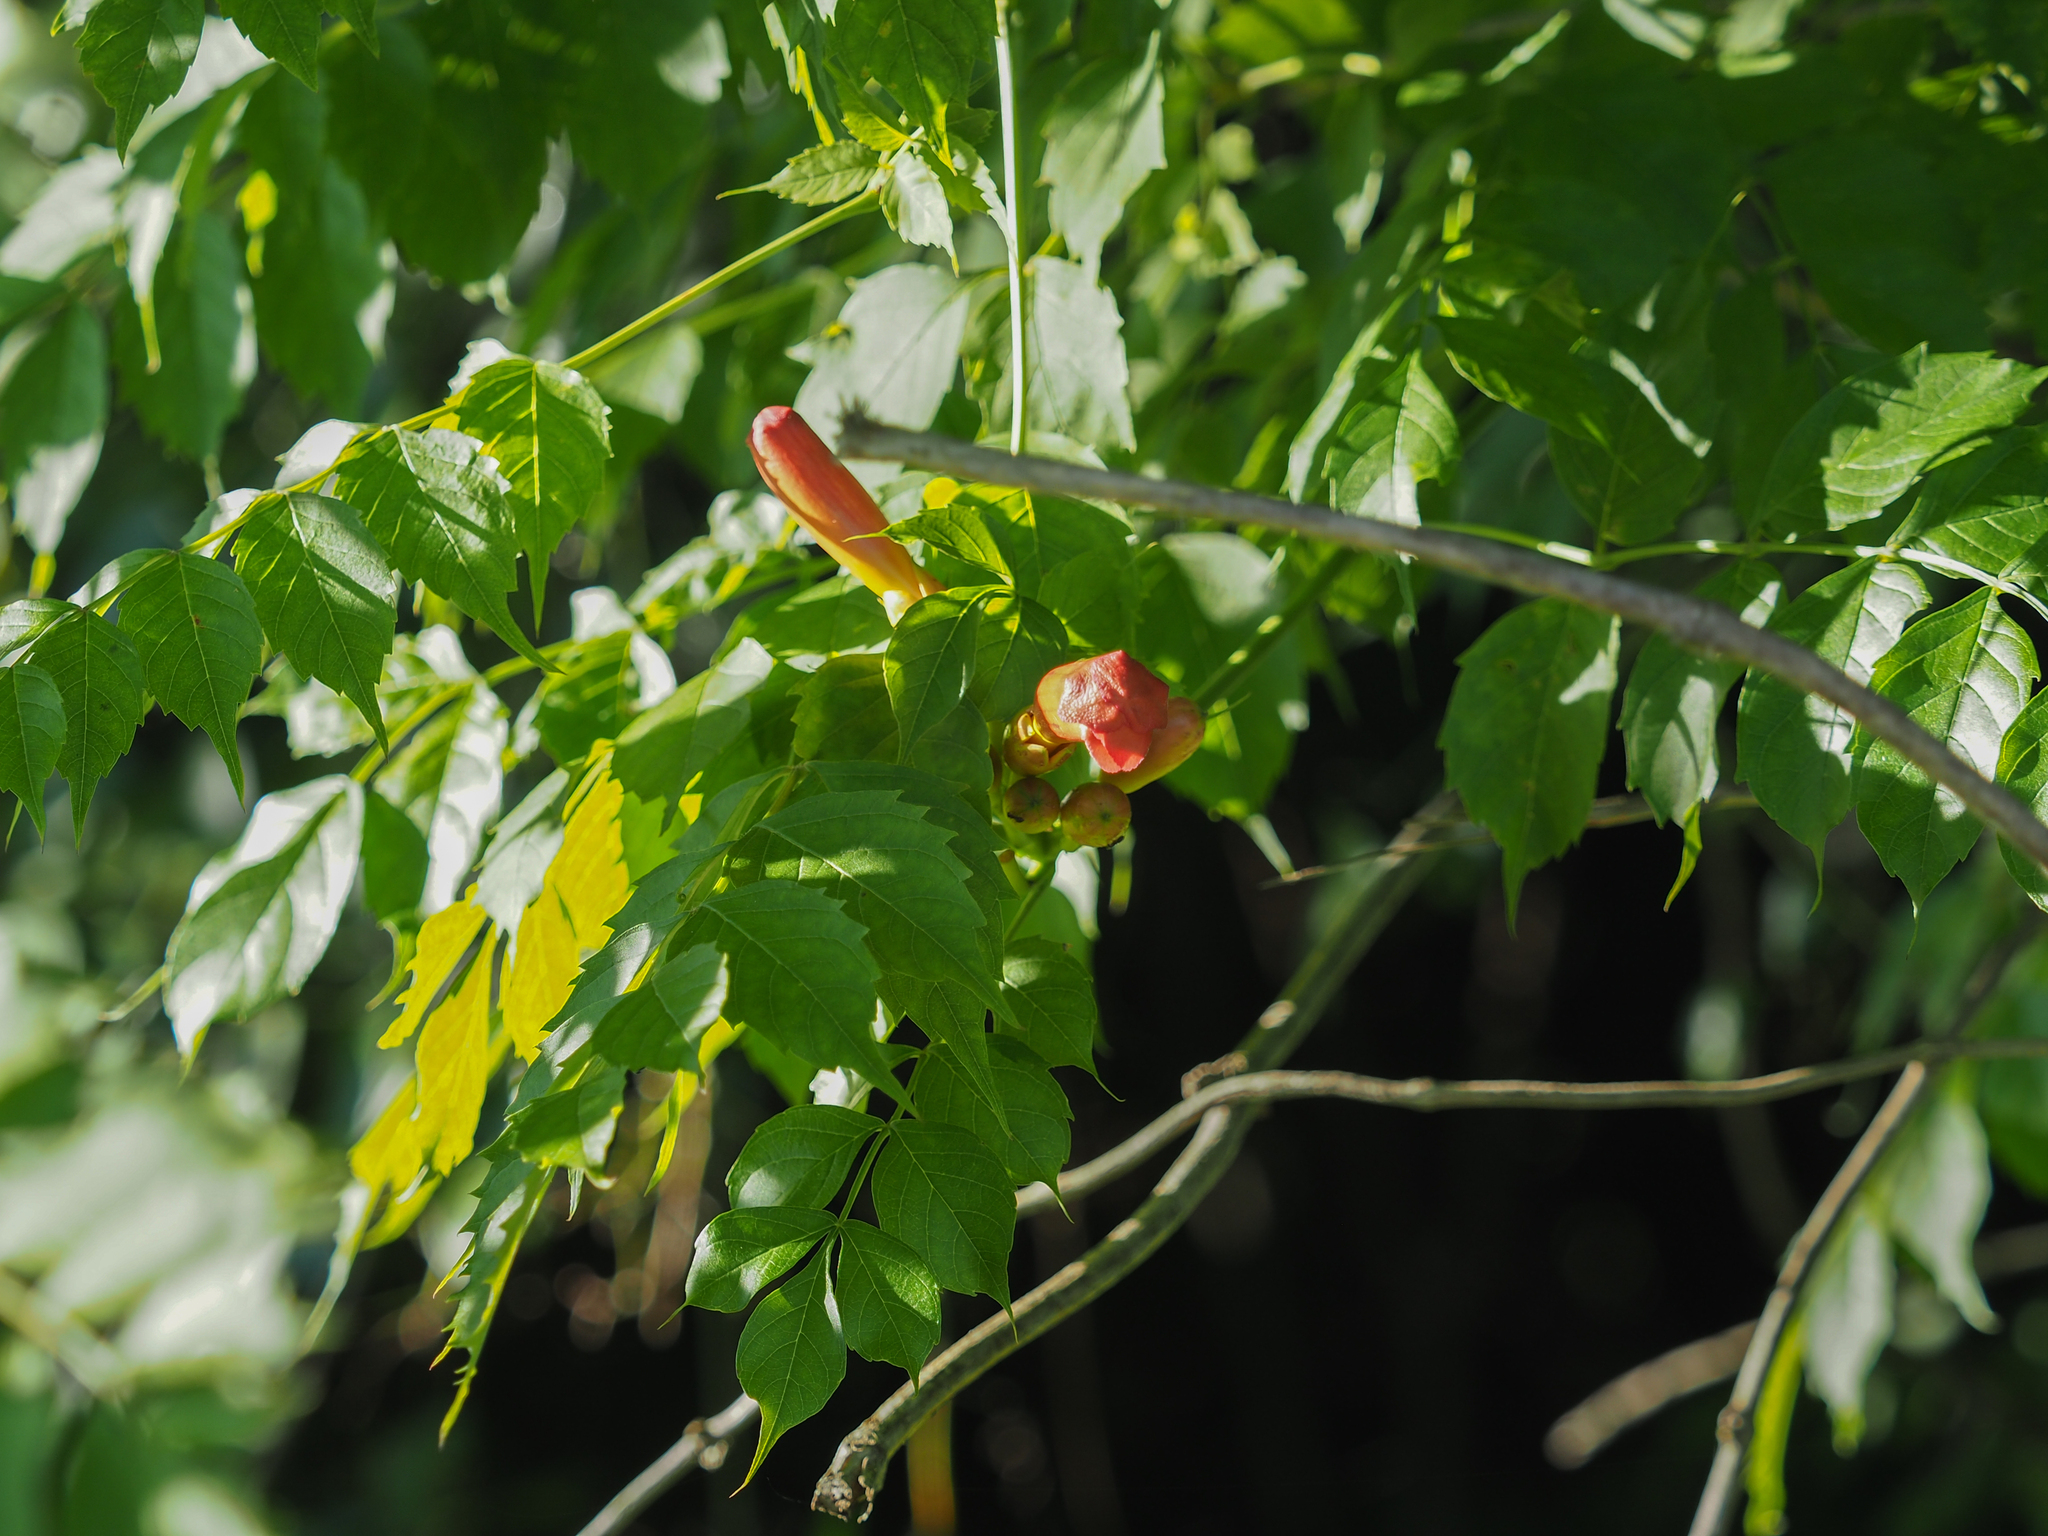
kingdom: Plantae
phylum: Tracheophyta
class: Magnoliopsida
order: Lamiales
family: Bignoniaceae
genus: Campsis
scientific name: Campsis radicans
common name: Trumpet-creeper
